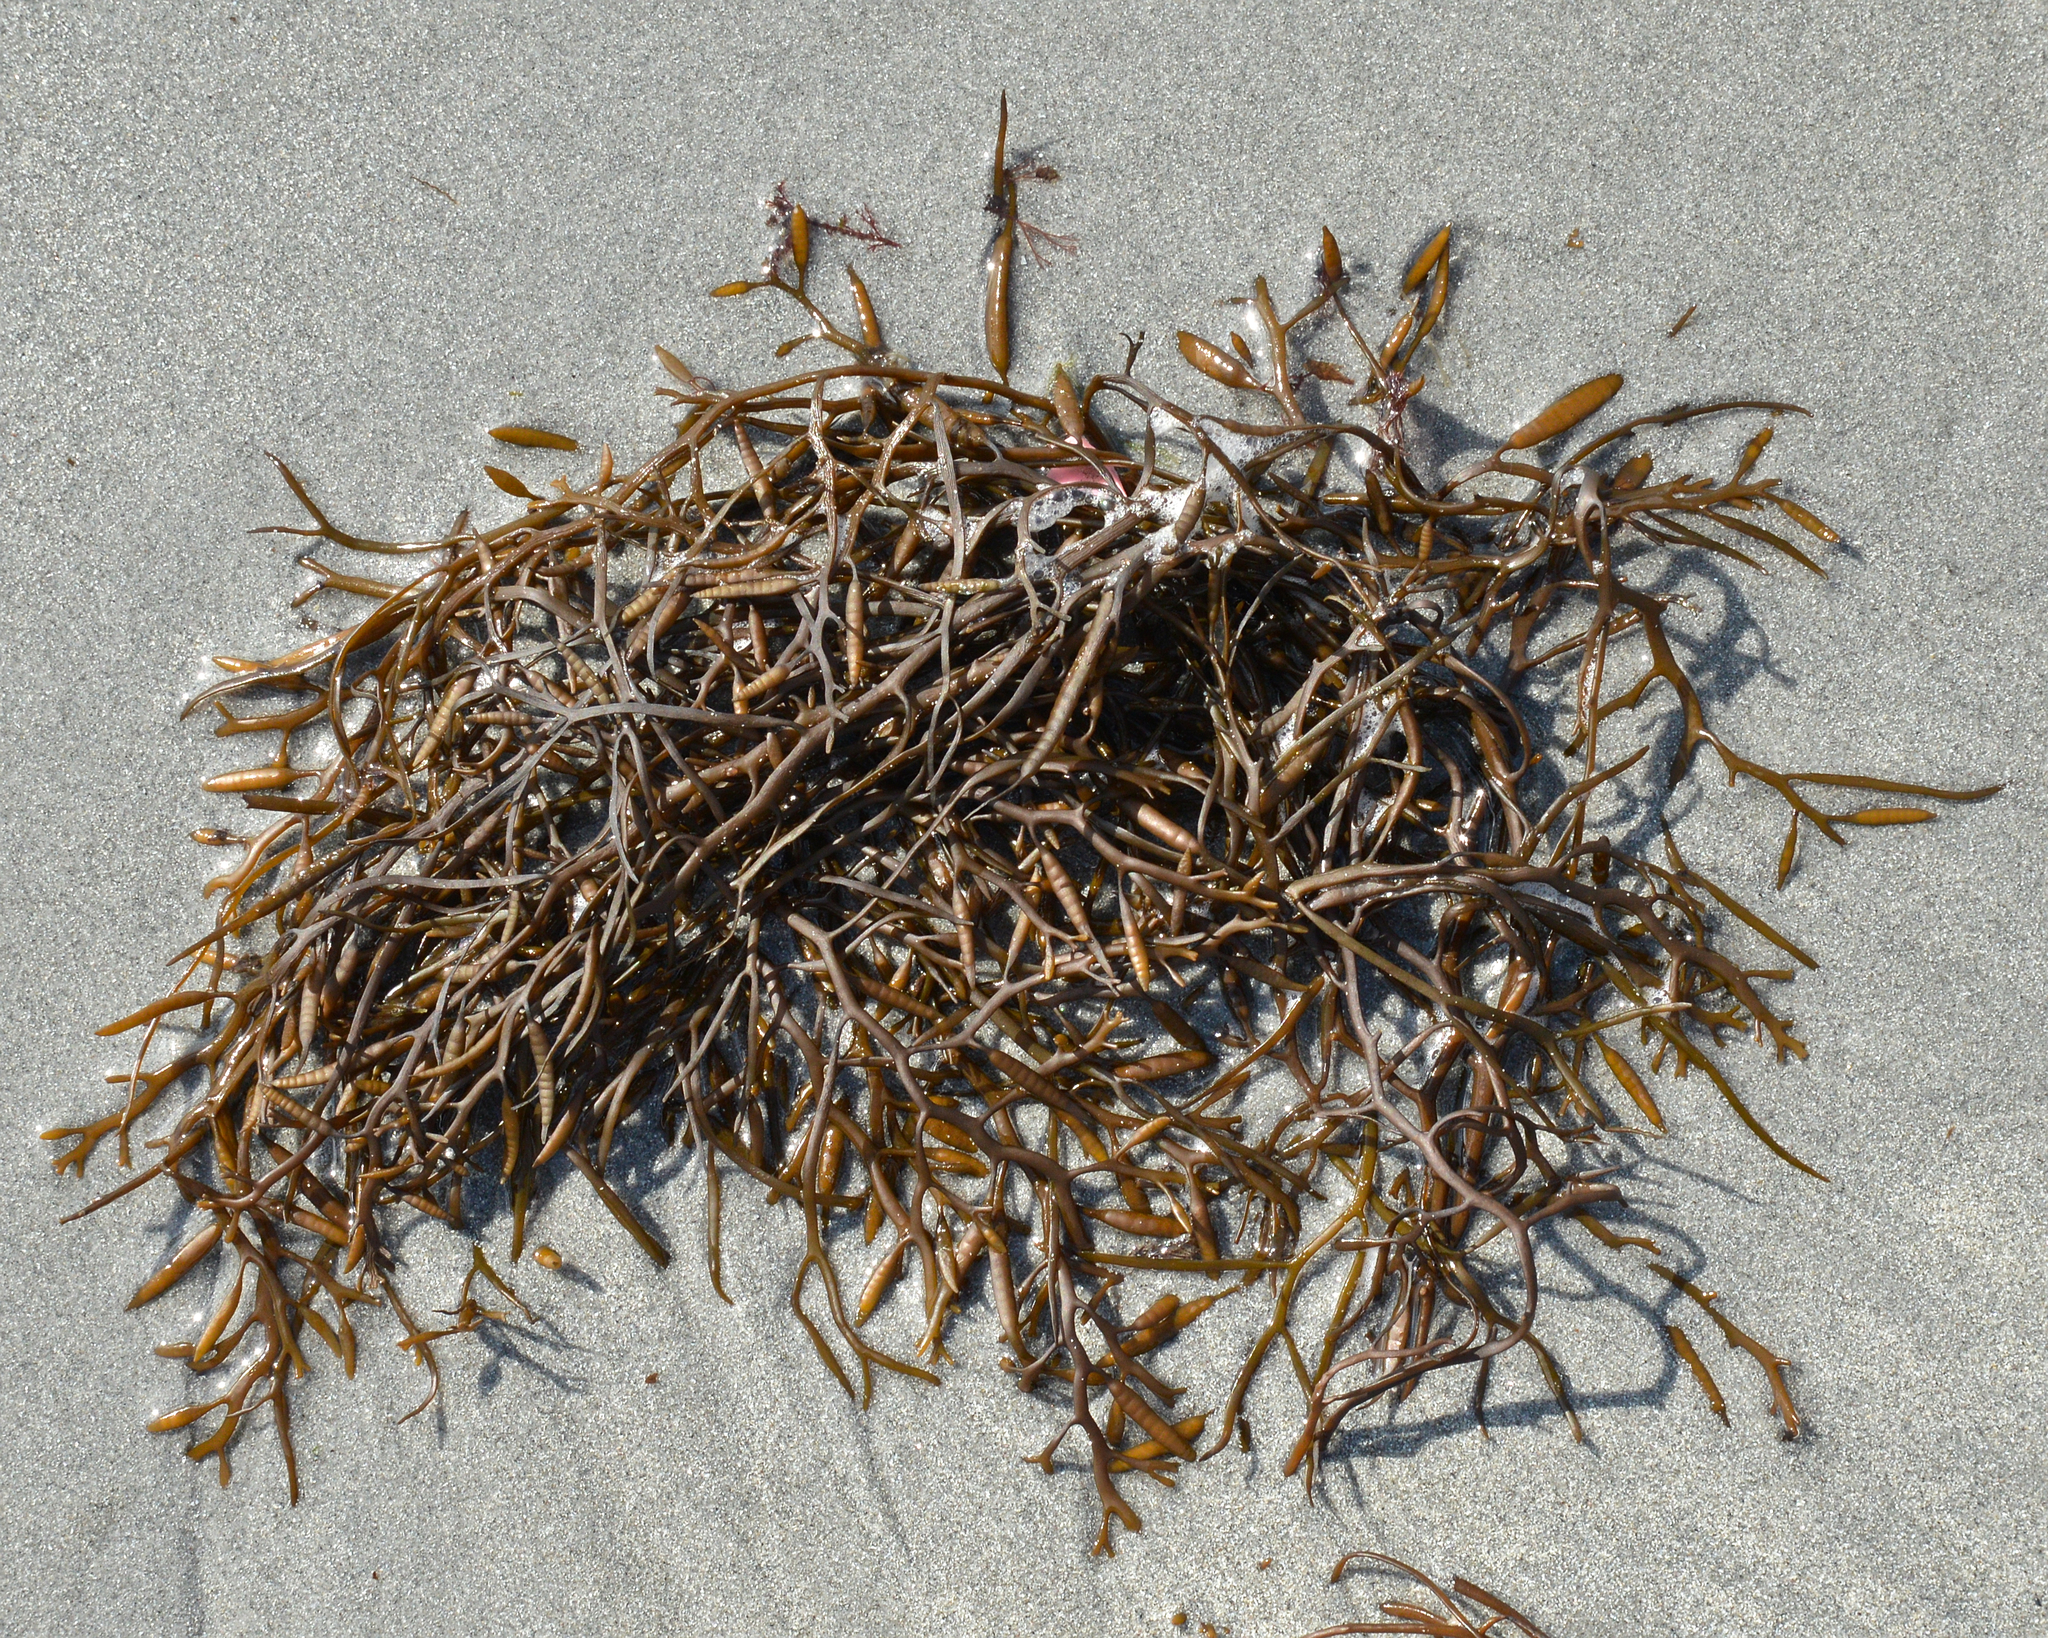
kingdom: Chromista
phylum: Ochrophyta
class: Phaeophyceae
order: Fucales
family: Sargassaceae
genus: Halidrys
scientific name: Halidrys siliquosa
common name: Sea oak
